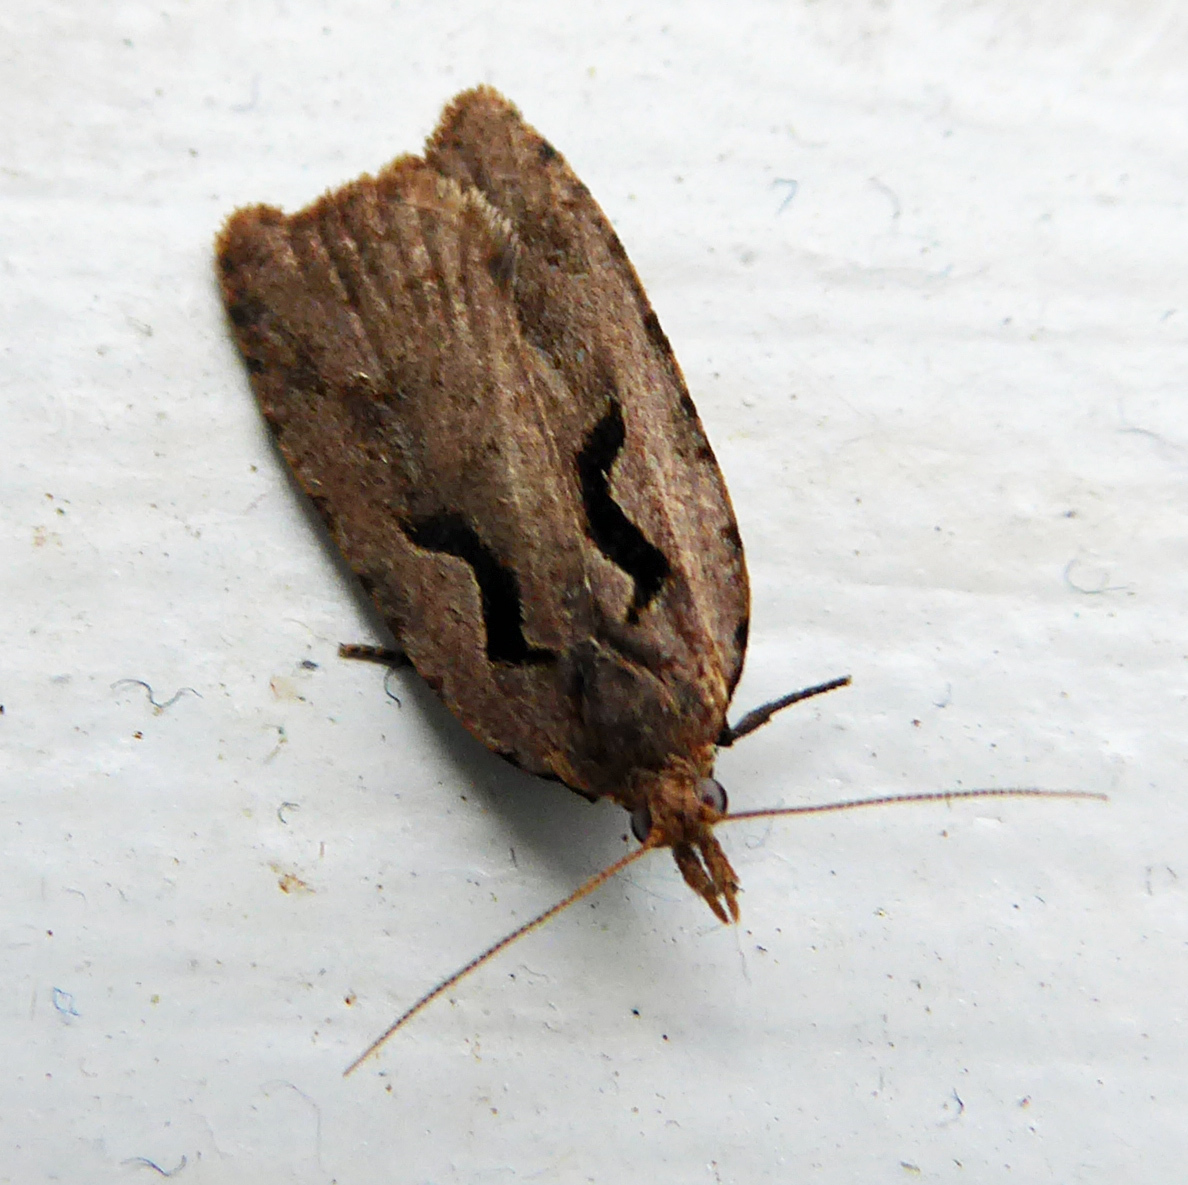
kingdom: Animalia
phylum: Arthropoda
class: Insecta
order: Lepidoptera
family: Tortricidae
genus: Cnephasia
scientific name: Cnephasia jactatana
